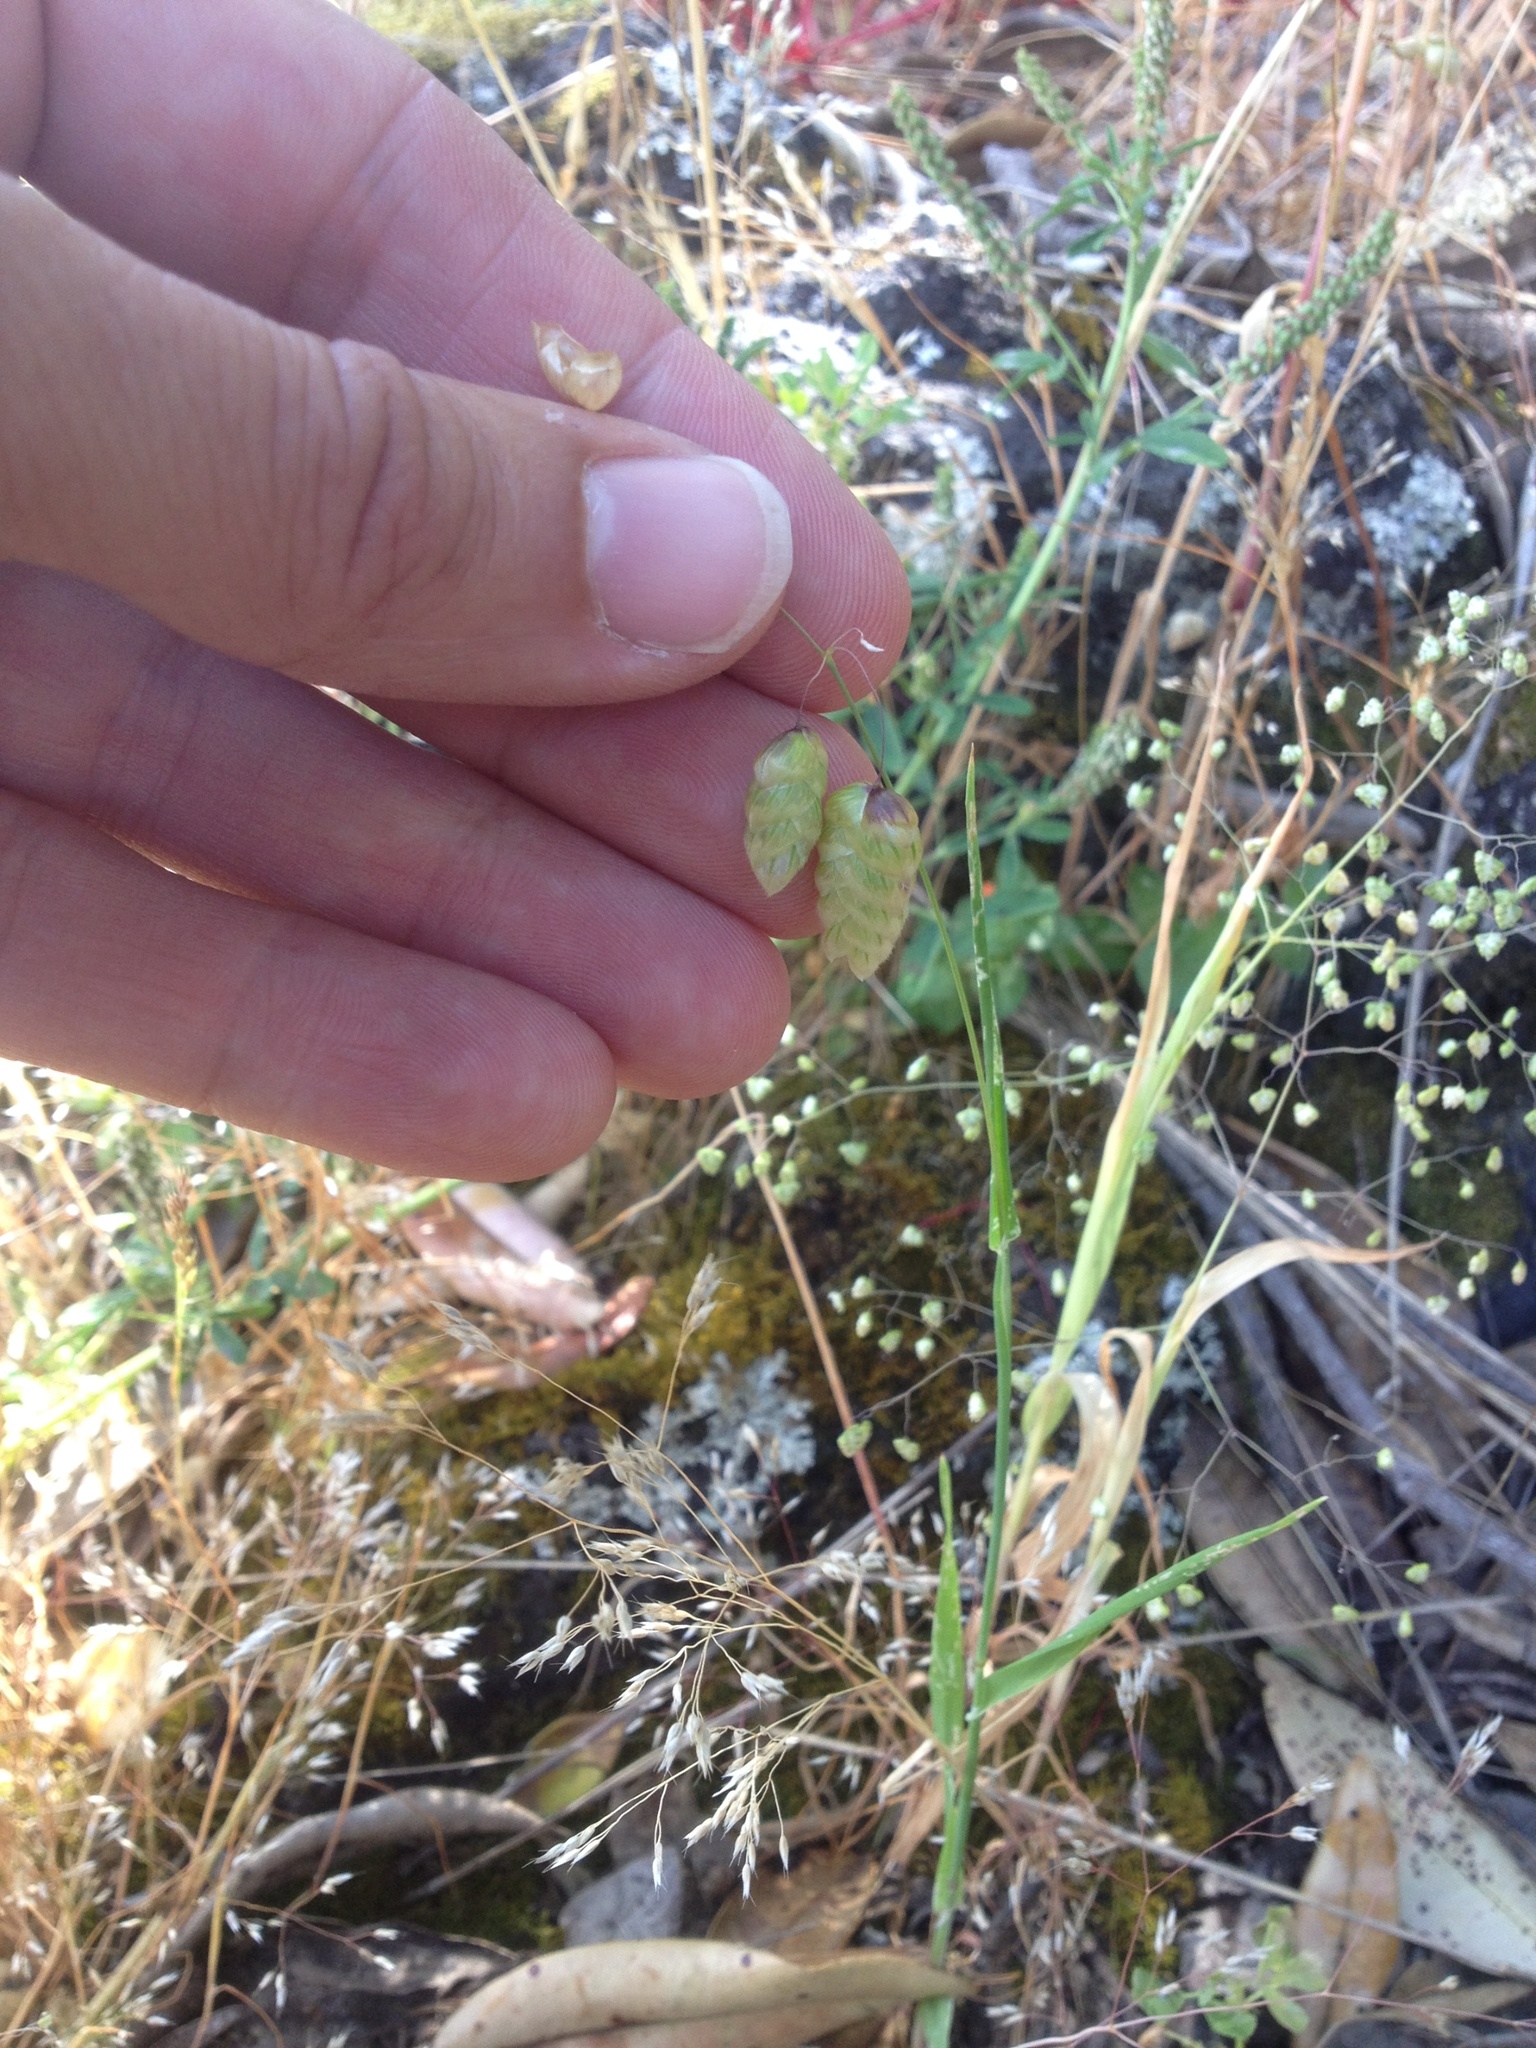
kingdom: Plantae
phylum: Tracheophyta
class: Liliopsida
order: Poales
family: Poaceae
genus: Briza
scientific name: Briza maxima
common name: Big quakinggrass
